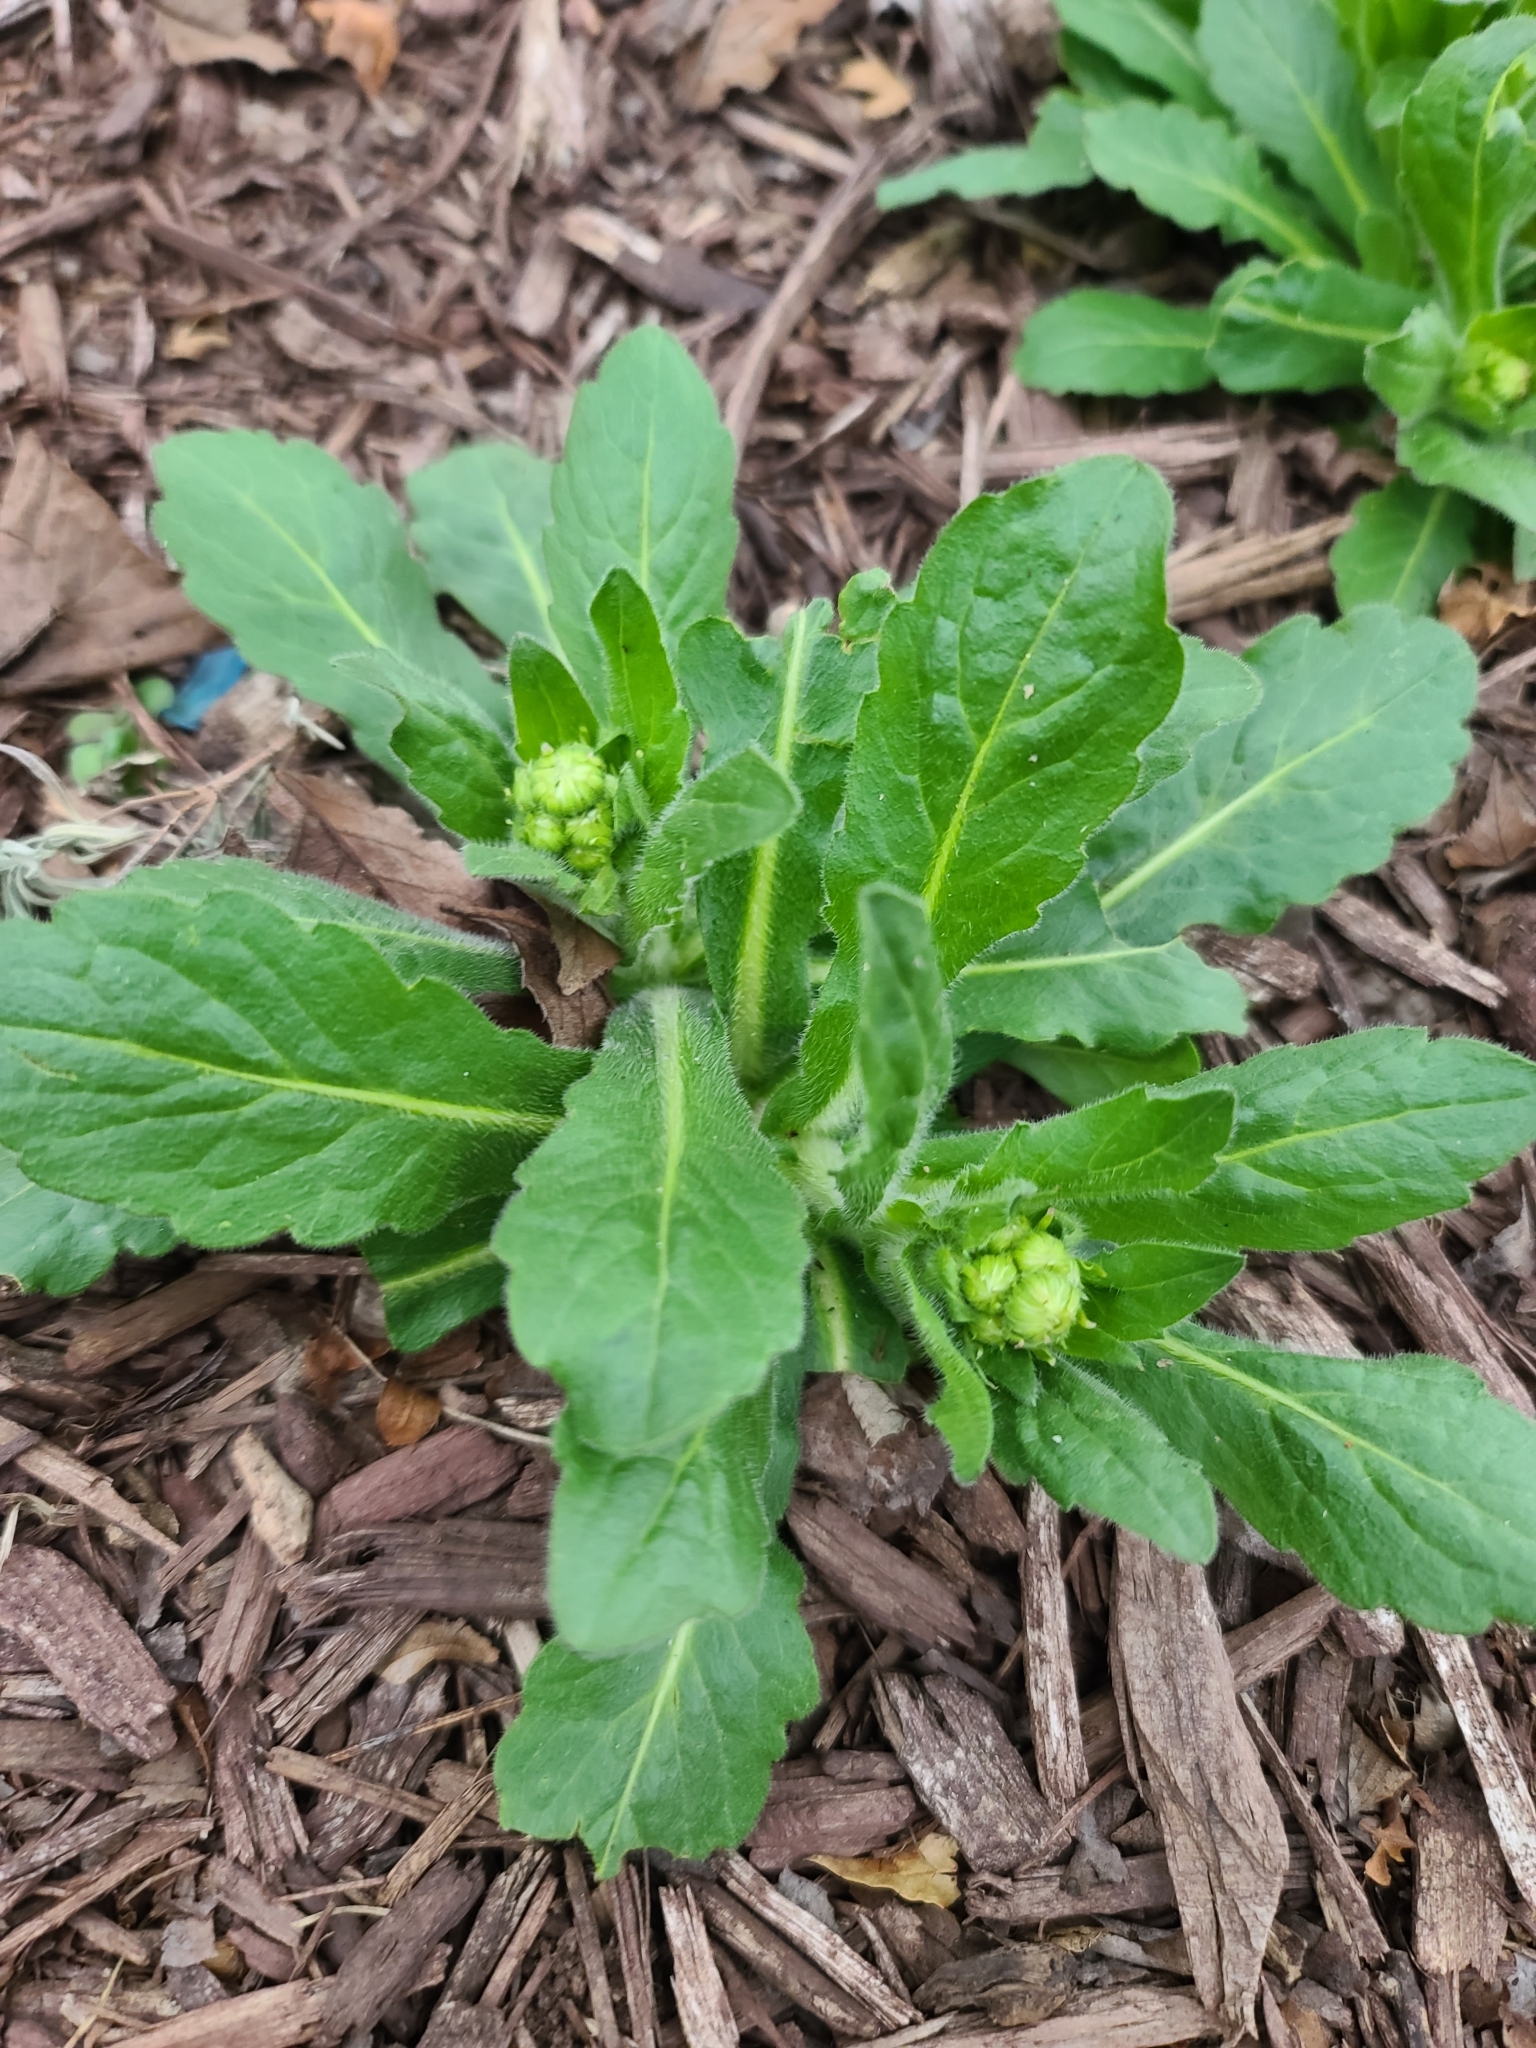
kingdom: Plantae
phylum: Tracheophyta
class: Magnoliopsida
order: Asterales
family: Asteraceae
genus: Erigeron
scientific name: Erigeron philadelphicus
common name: Robin's-plantain
